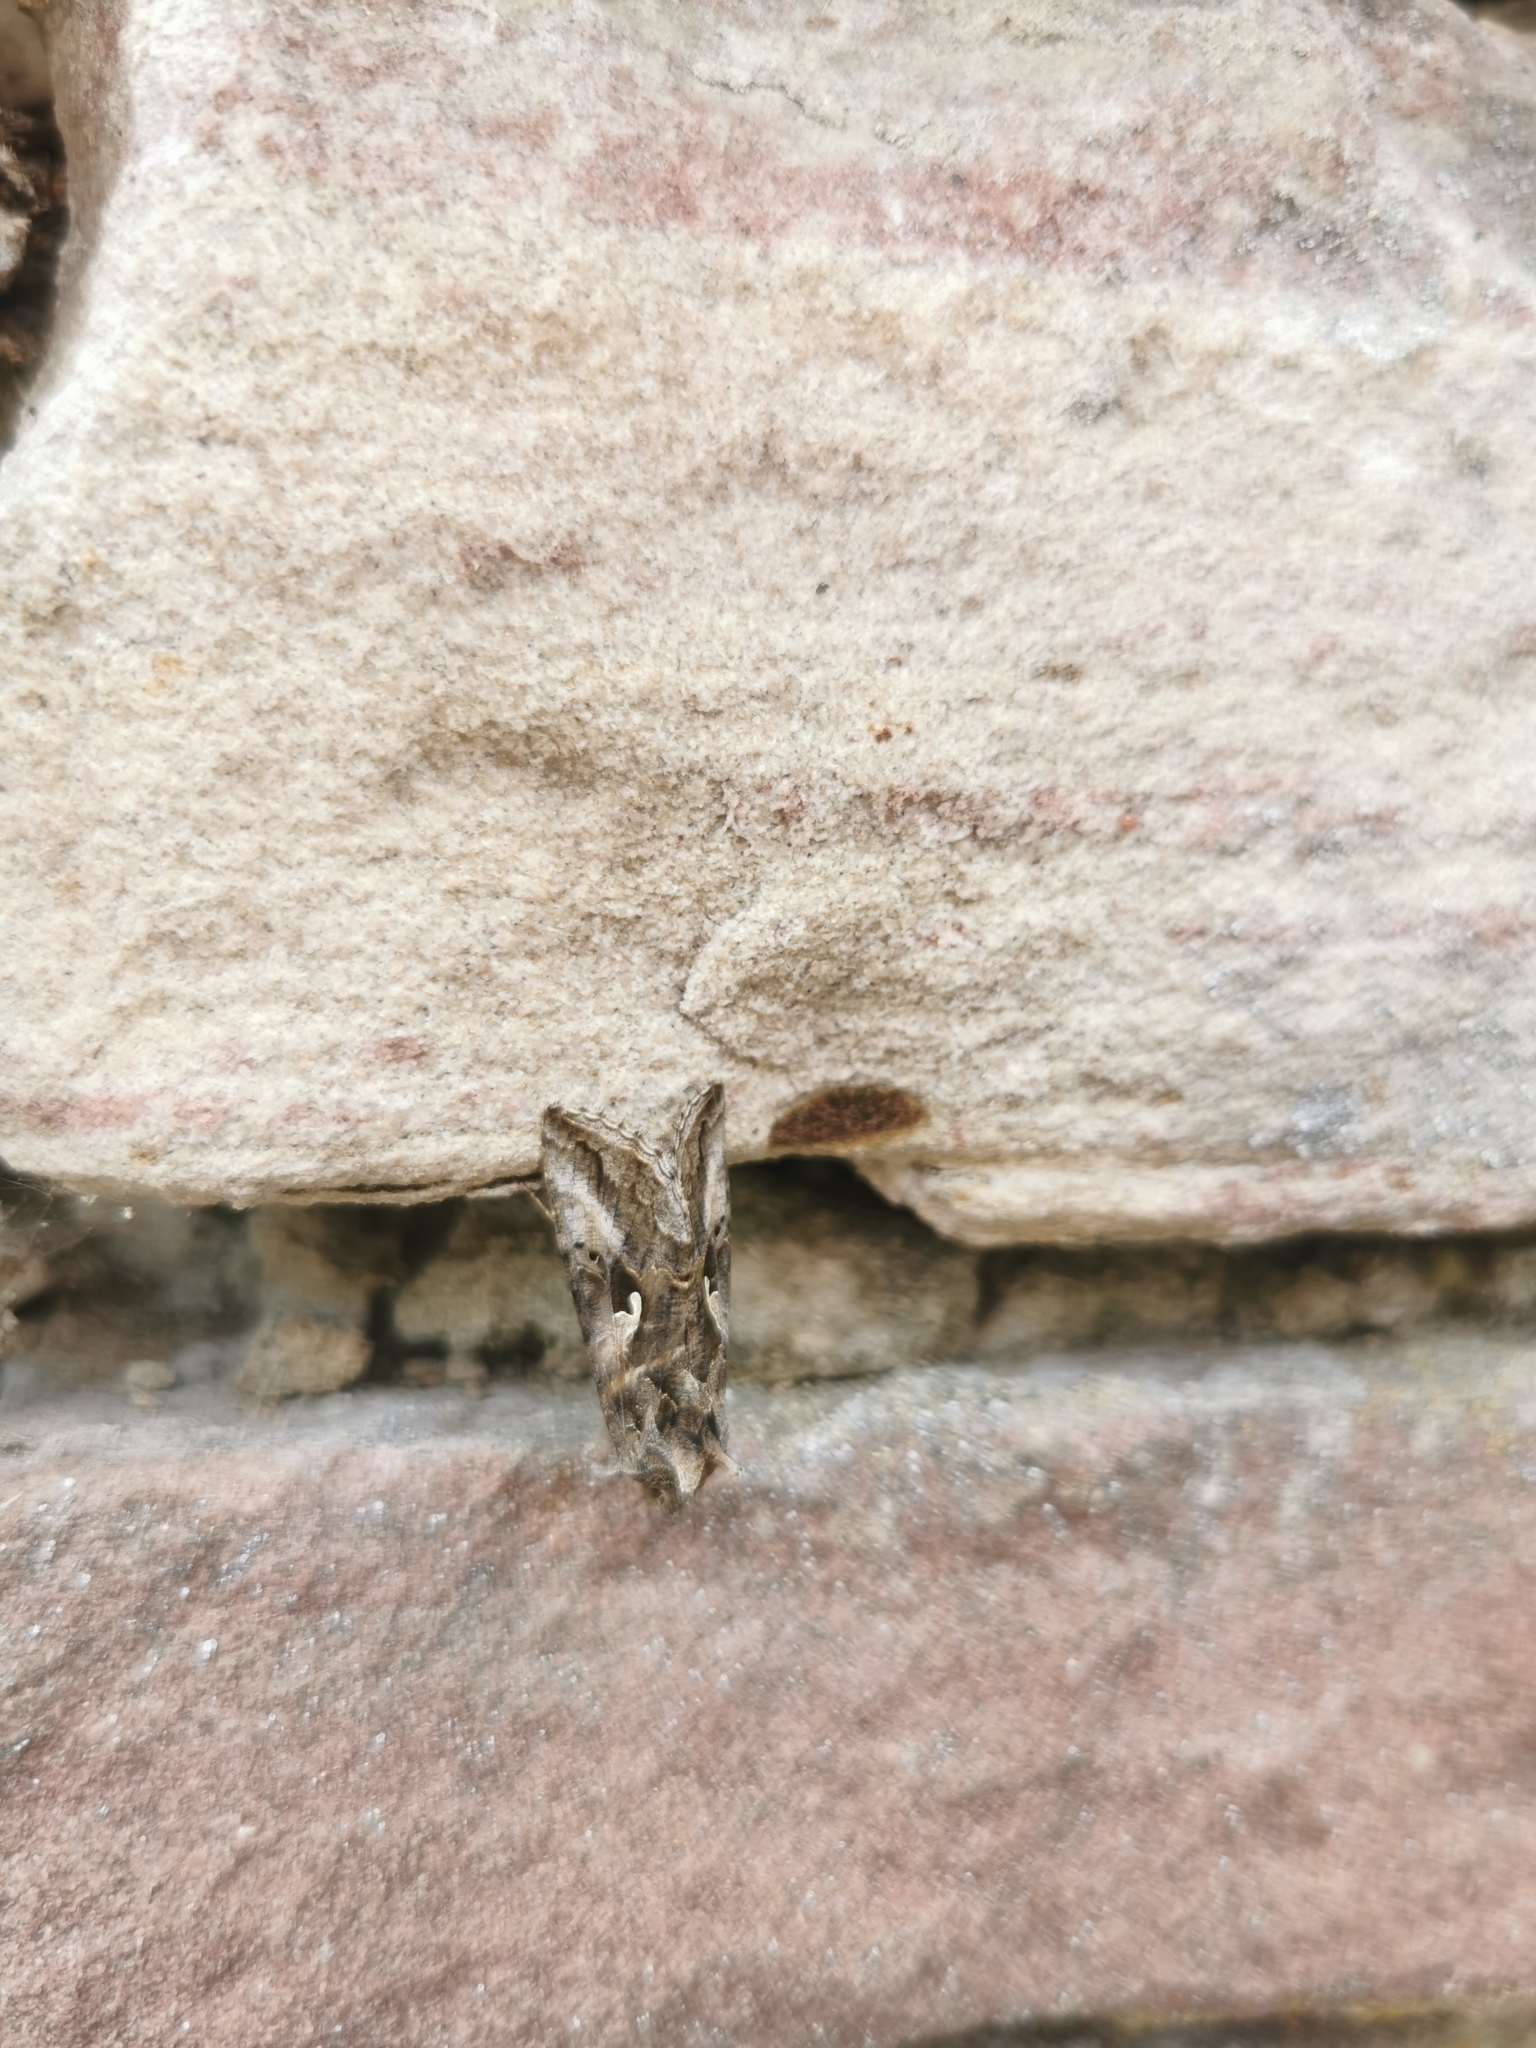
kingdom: Animalia
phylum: Arthropoda
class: Insecta
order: Lepidoptera
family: Noctuidae
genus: Autographa
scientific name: Autographa gamma
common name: Silver y
